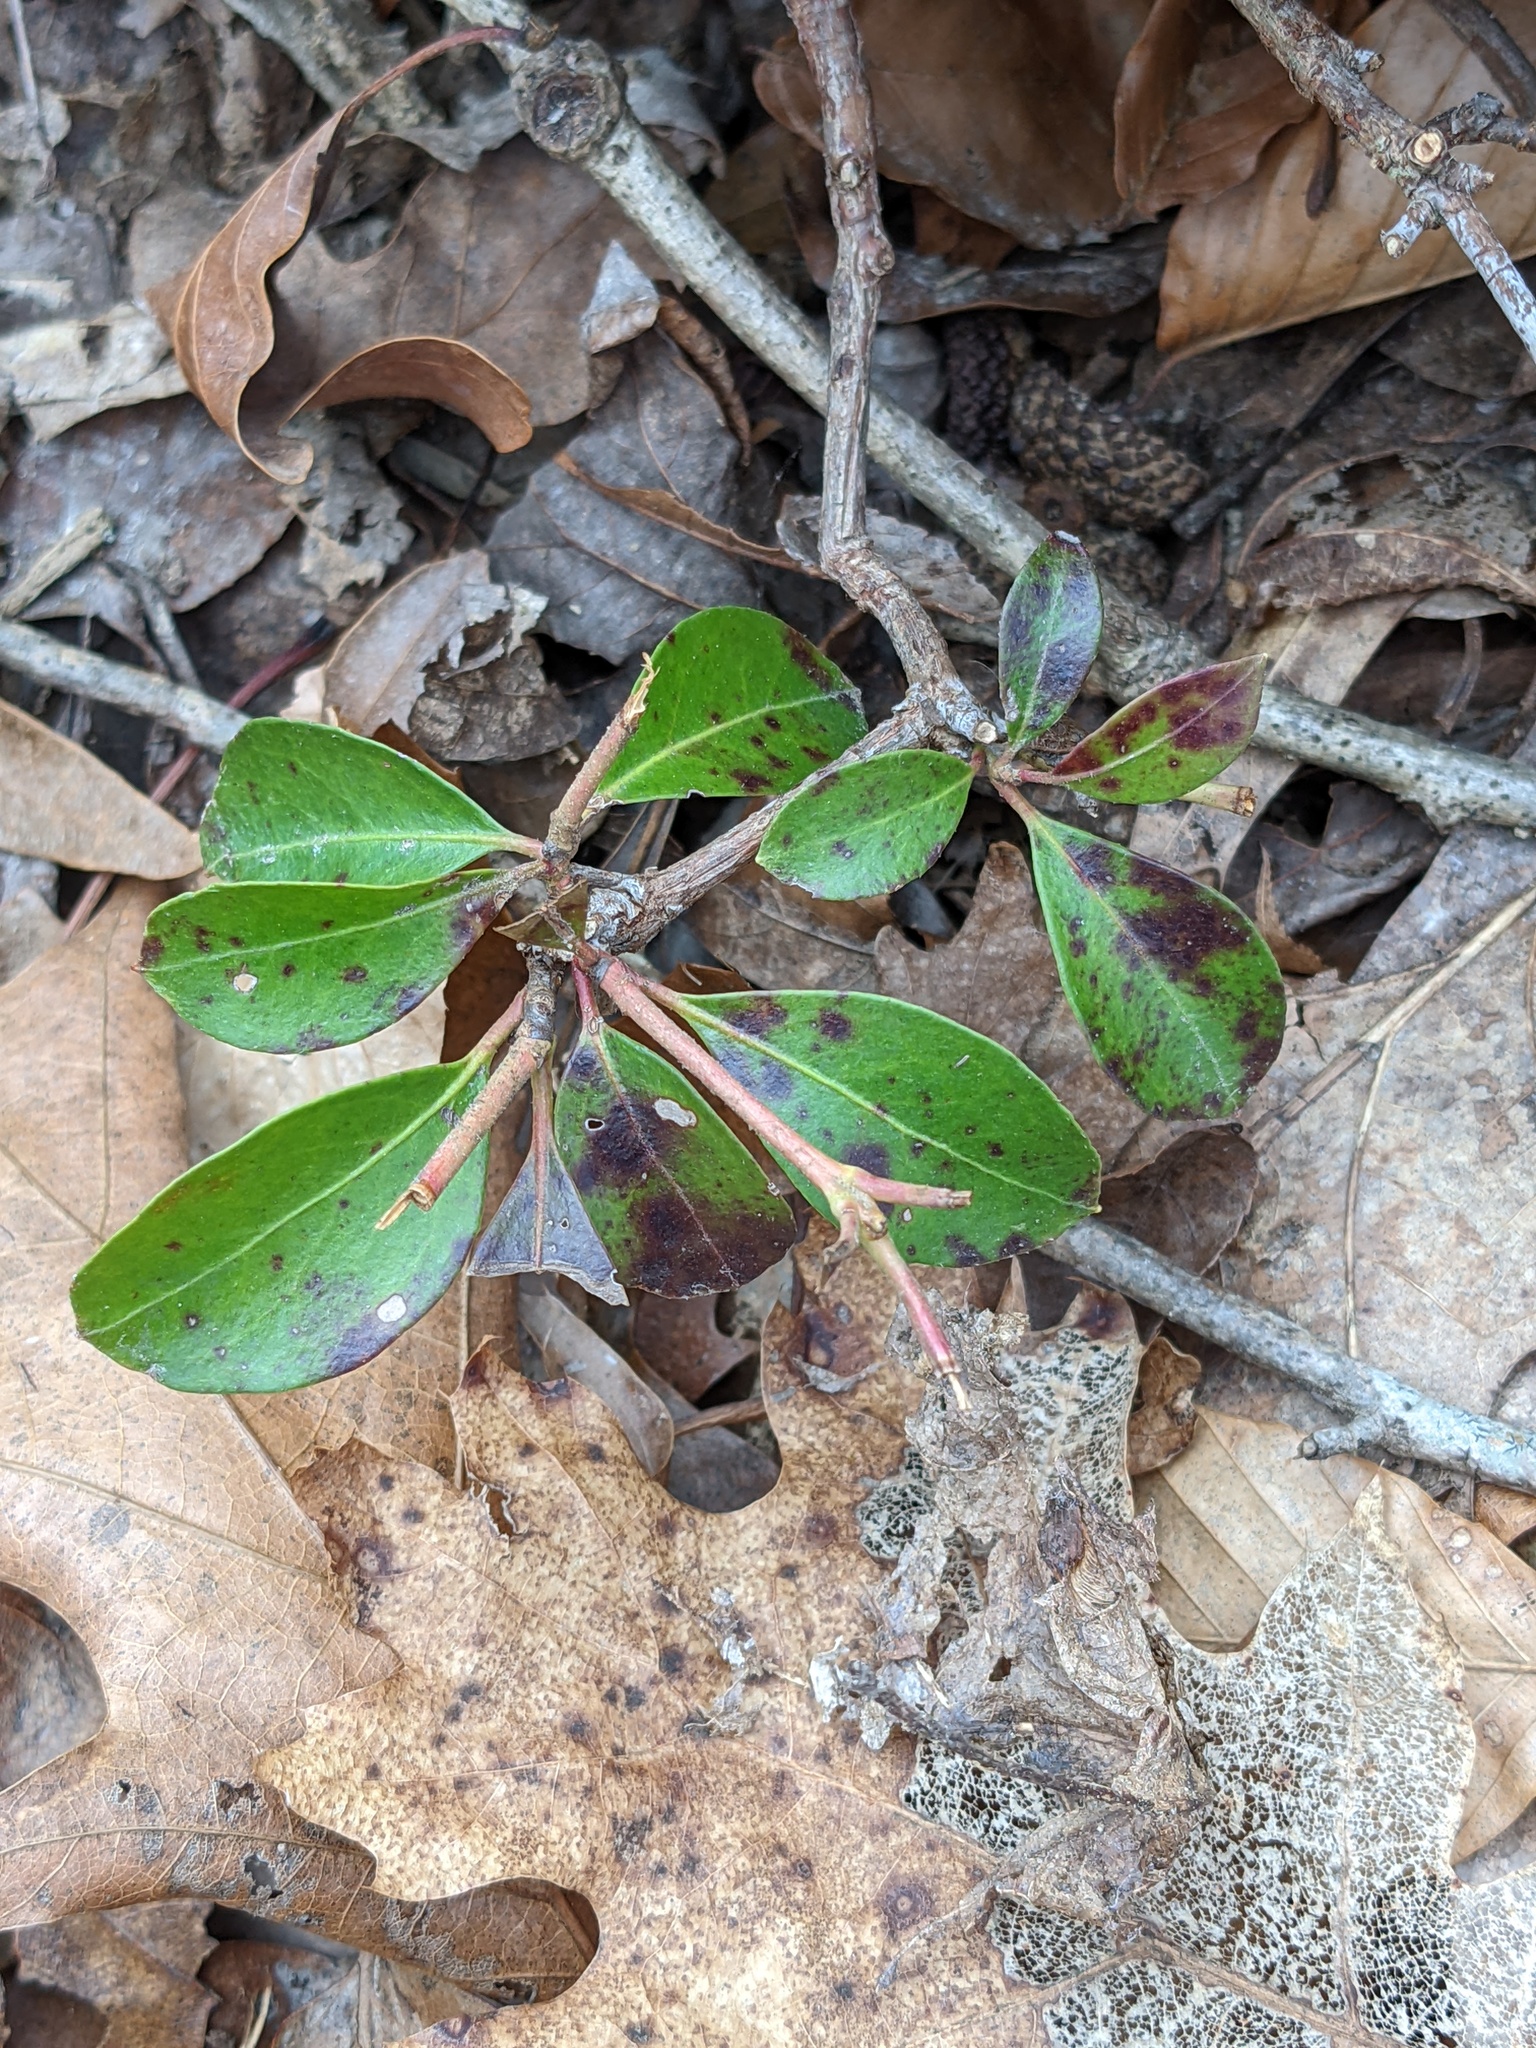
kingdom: Plantae
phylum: Tracheophyta
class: Magnoliopsida
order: Ericales
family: Ericaceae
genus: Kalmia
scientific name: Kalmia latifolia
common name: Mountain-laurel
